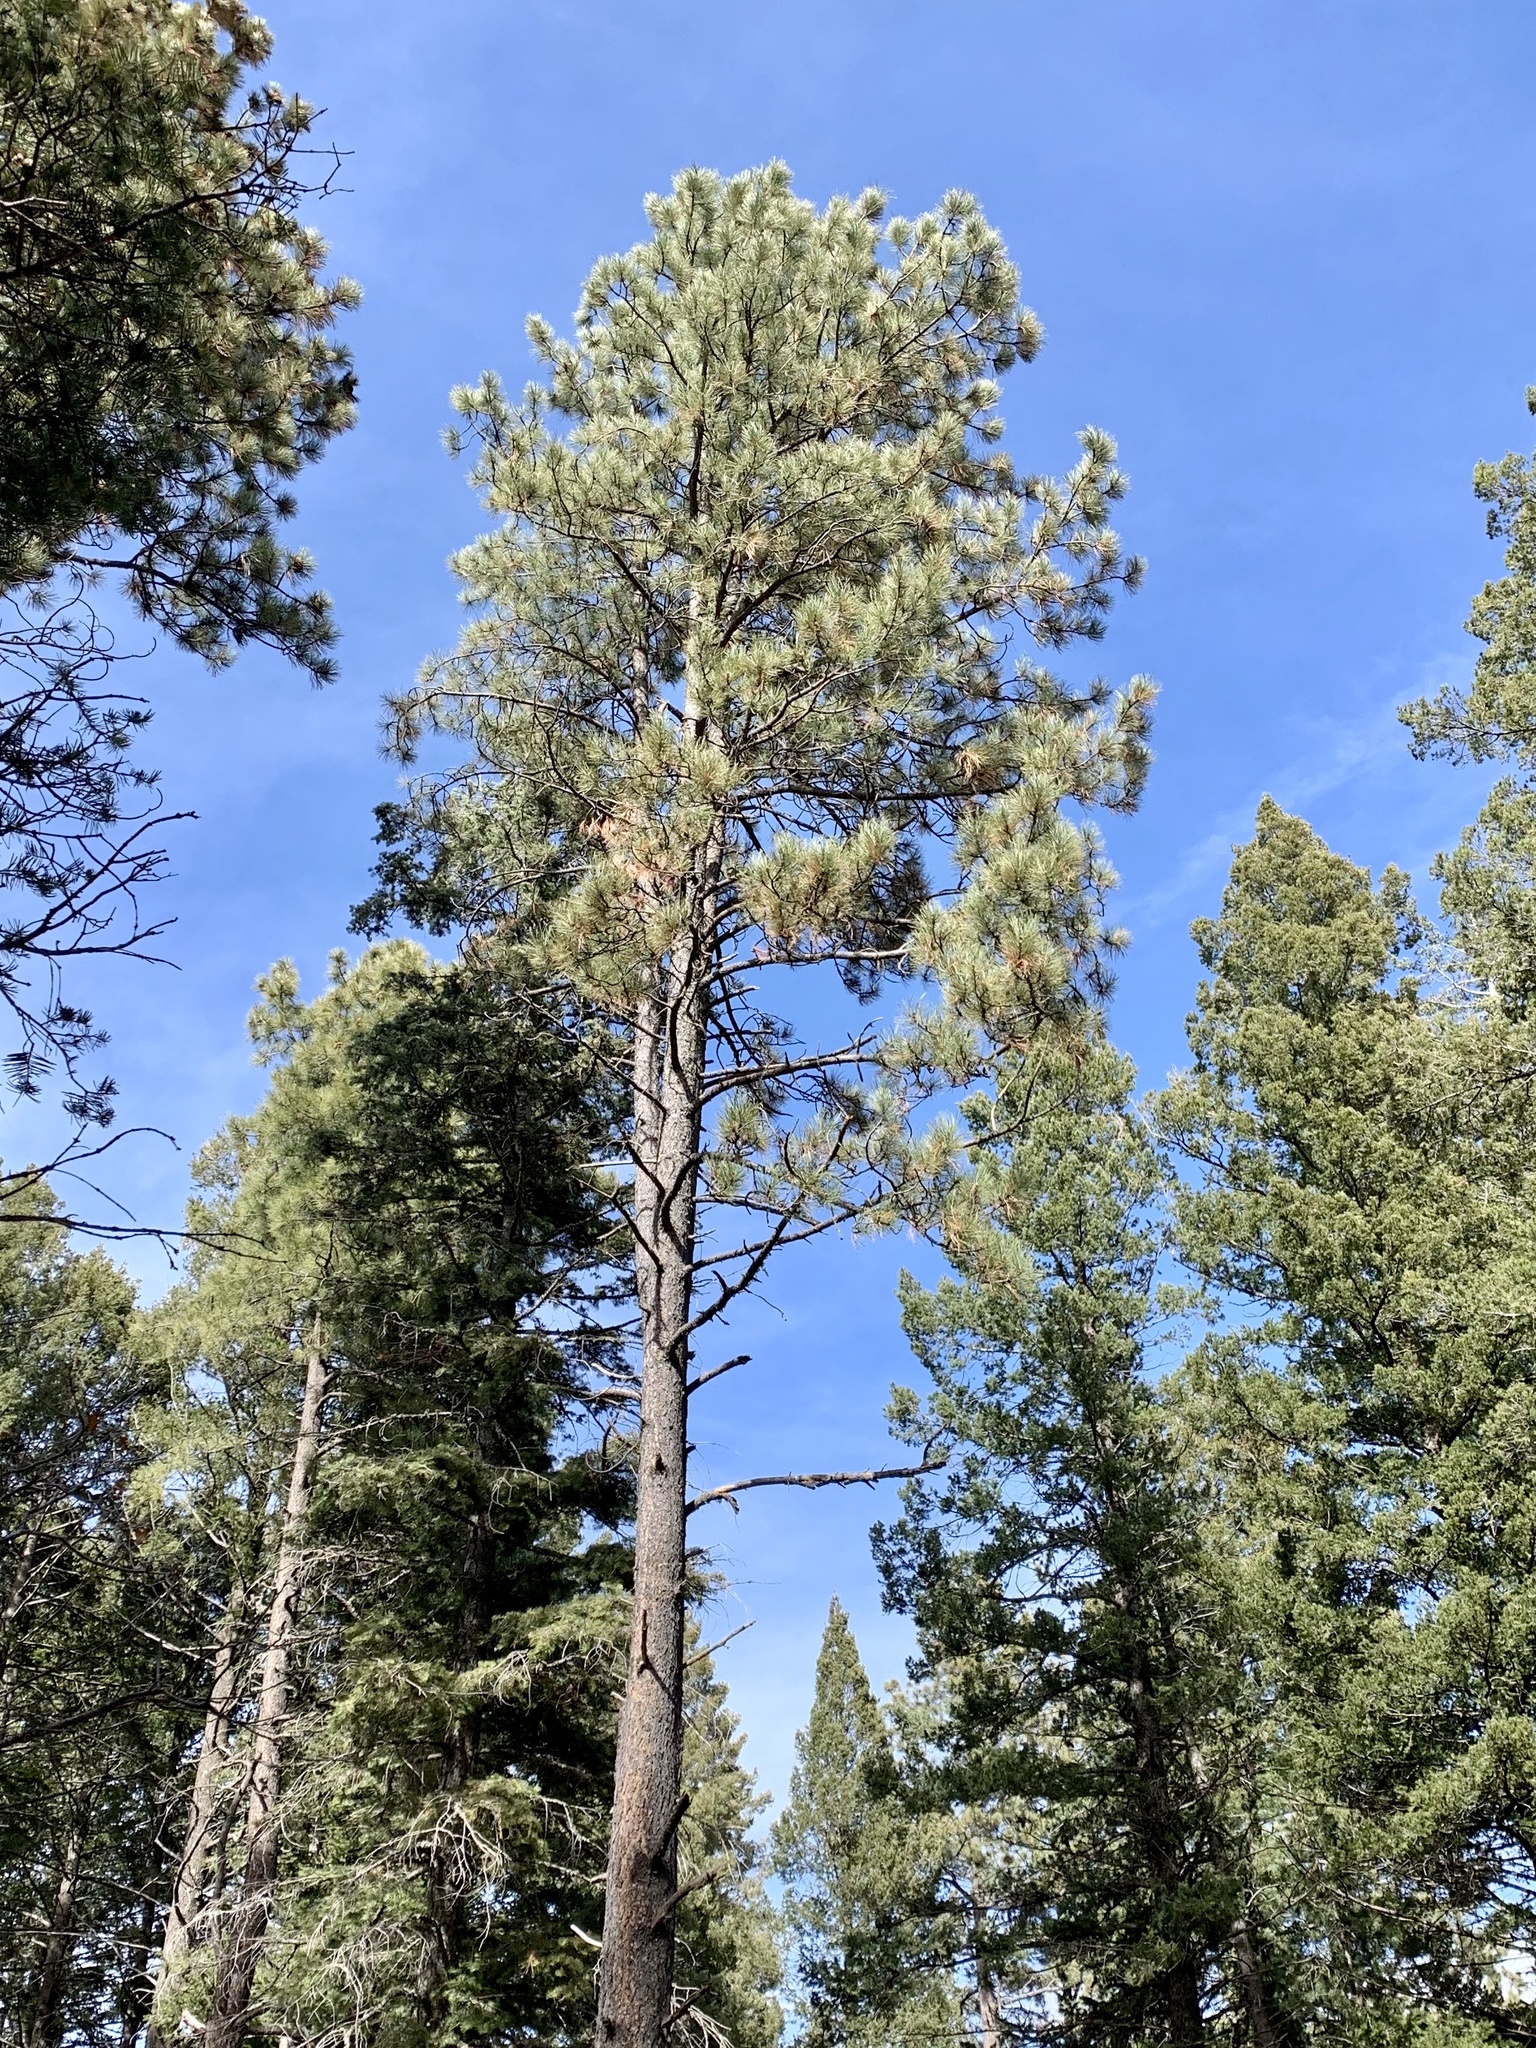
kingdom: Plantae
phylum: Tracheophyta
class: Pinopsida
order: Pinales
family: Pinaceae
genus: Pinus
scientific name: Pinus ponderosa
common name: Western yellow-pine
